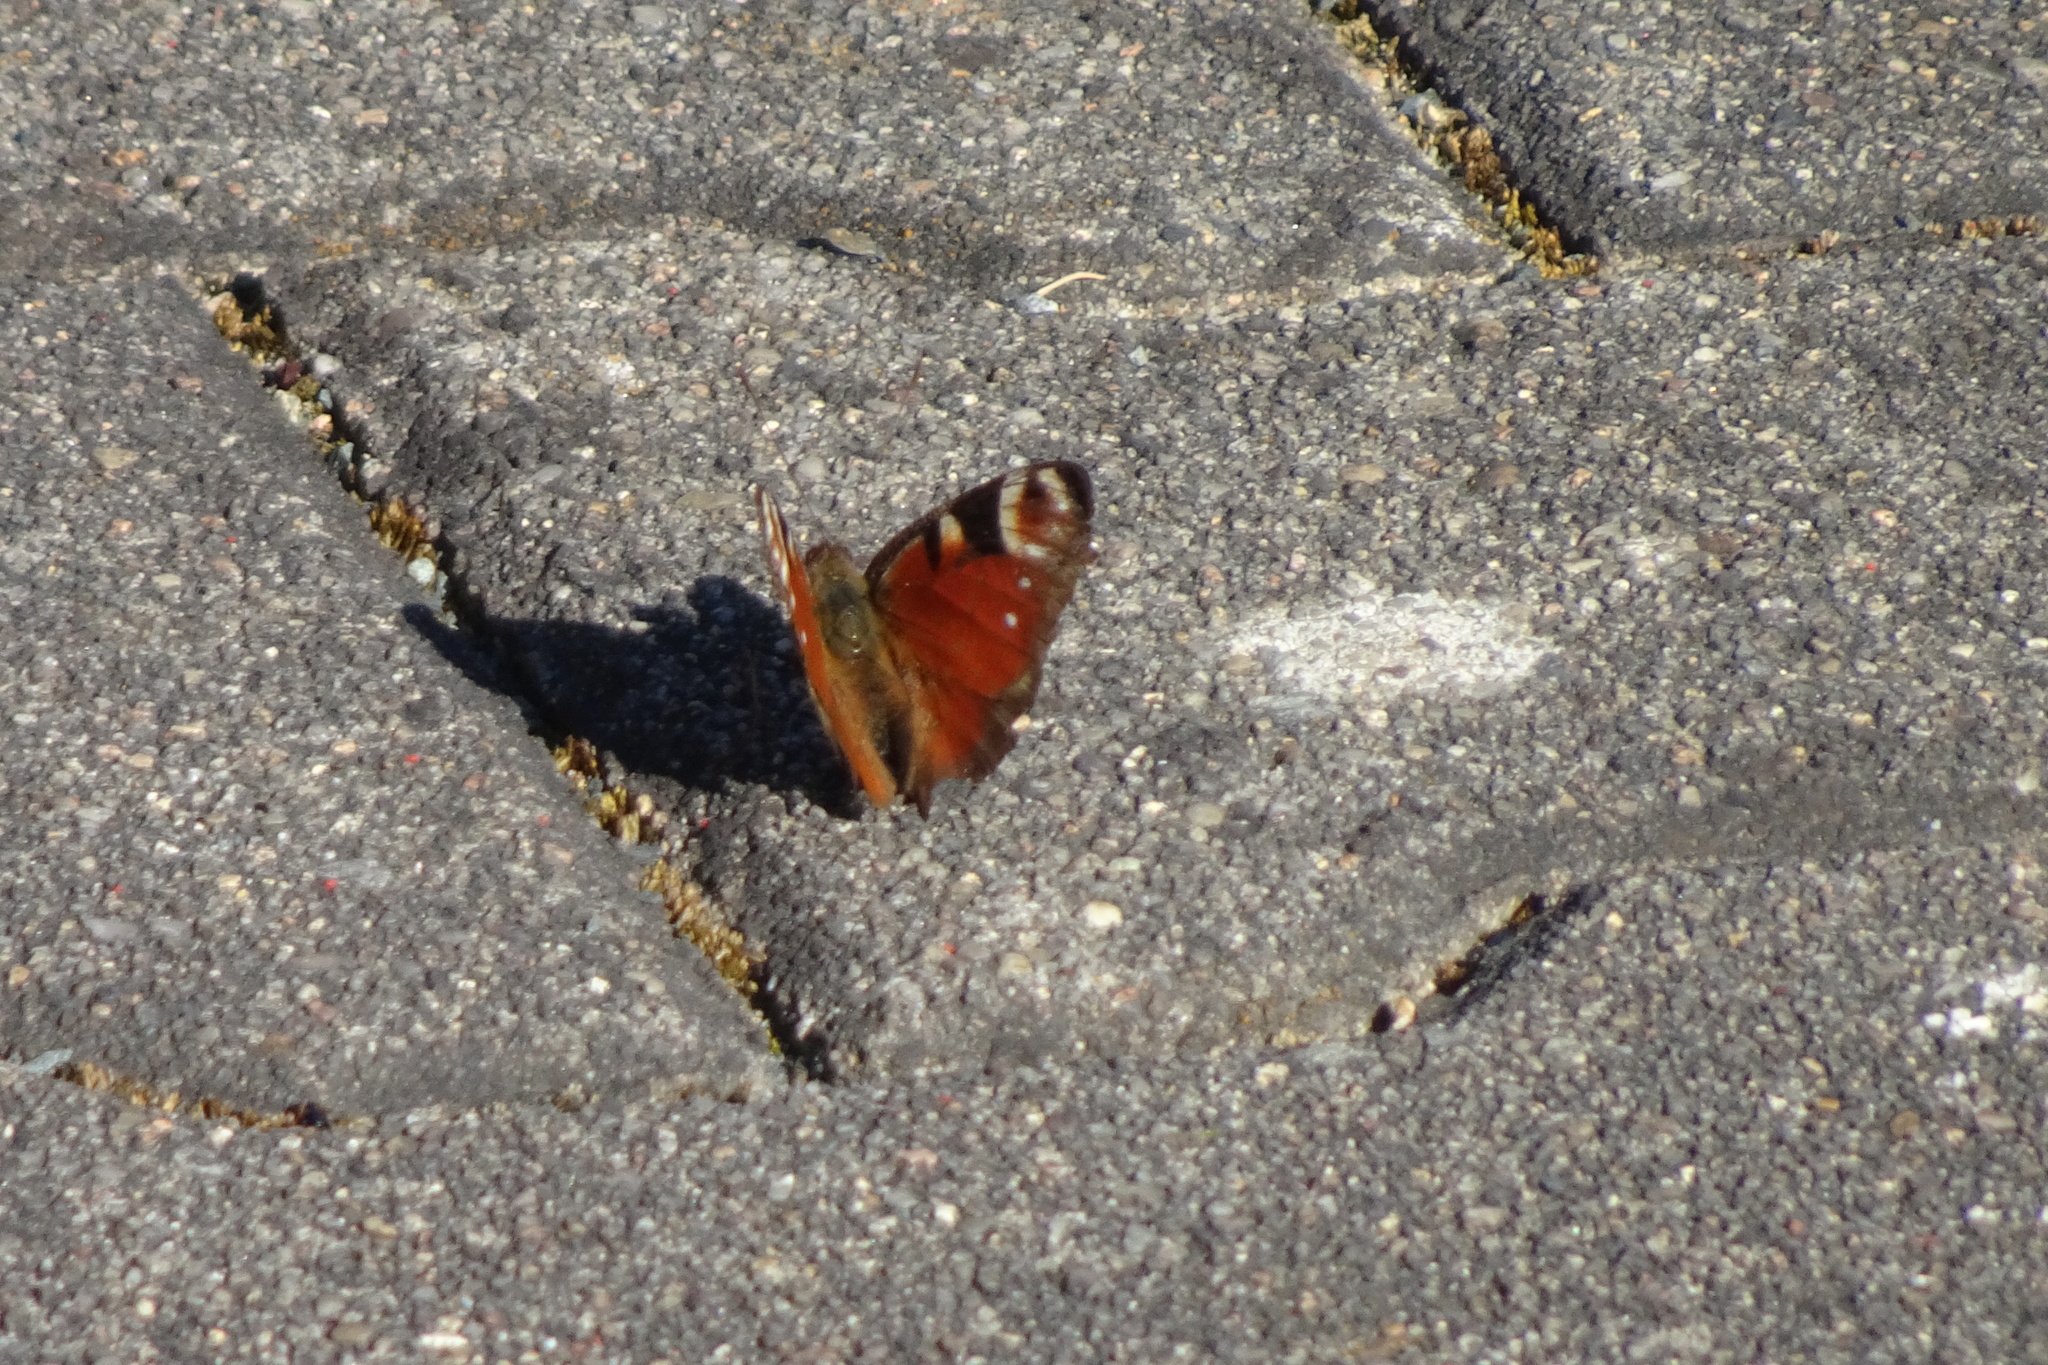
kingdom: Animalia
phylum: Arthropoda
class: Insecta
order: Lepidoptera
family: Nymphalidae
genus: Aglais
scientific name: Aglais io
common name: Peacock
